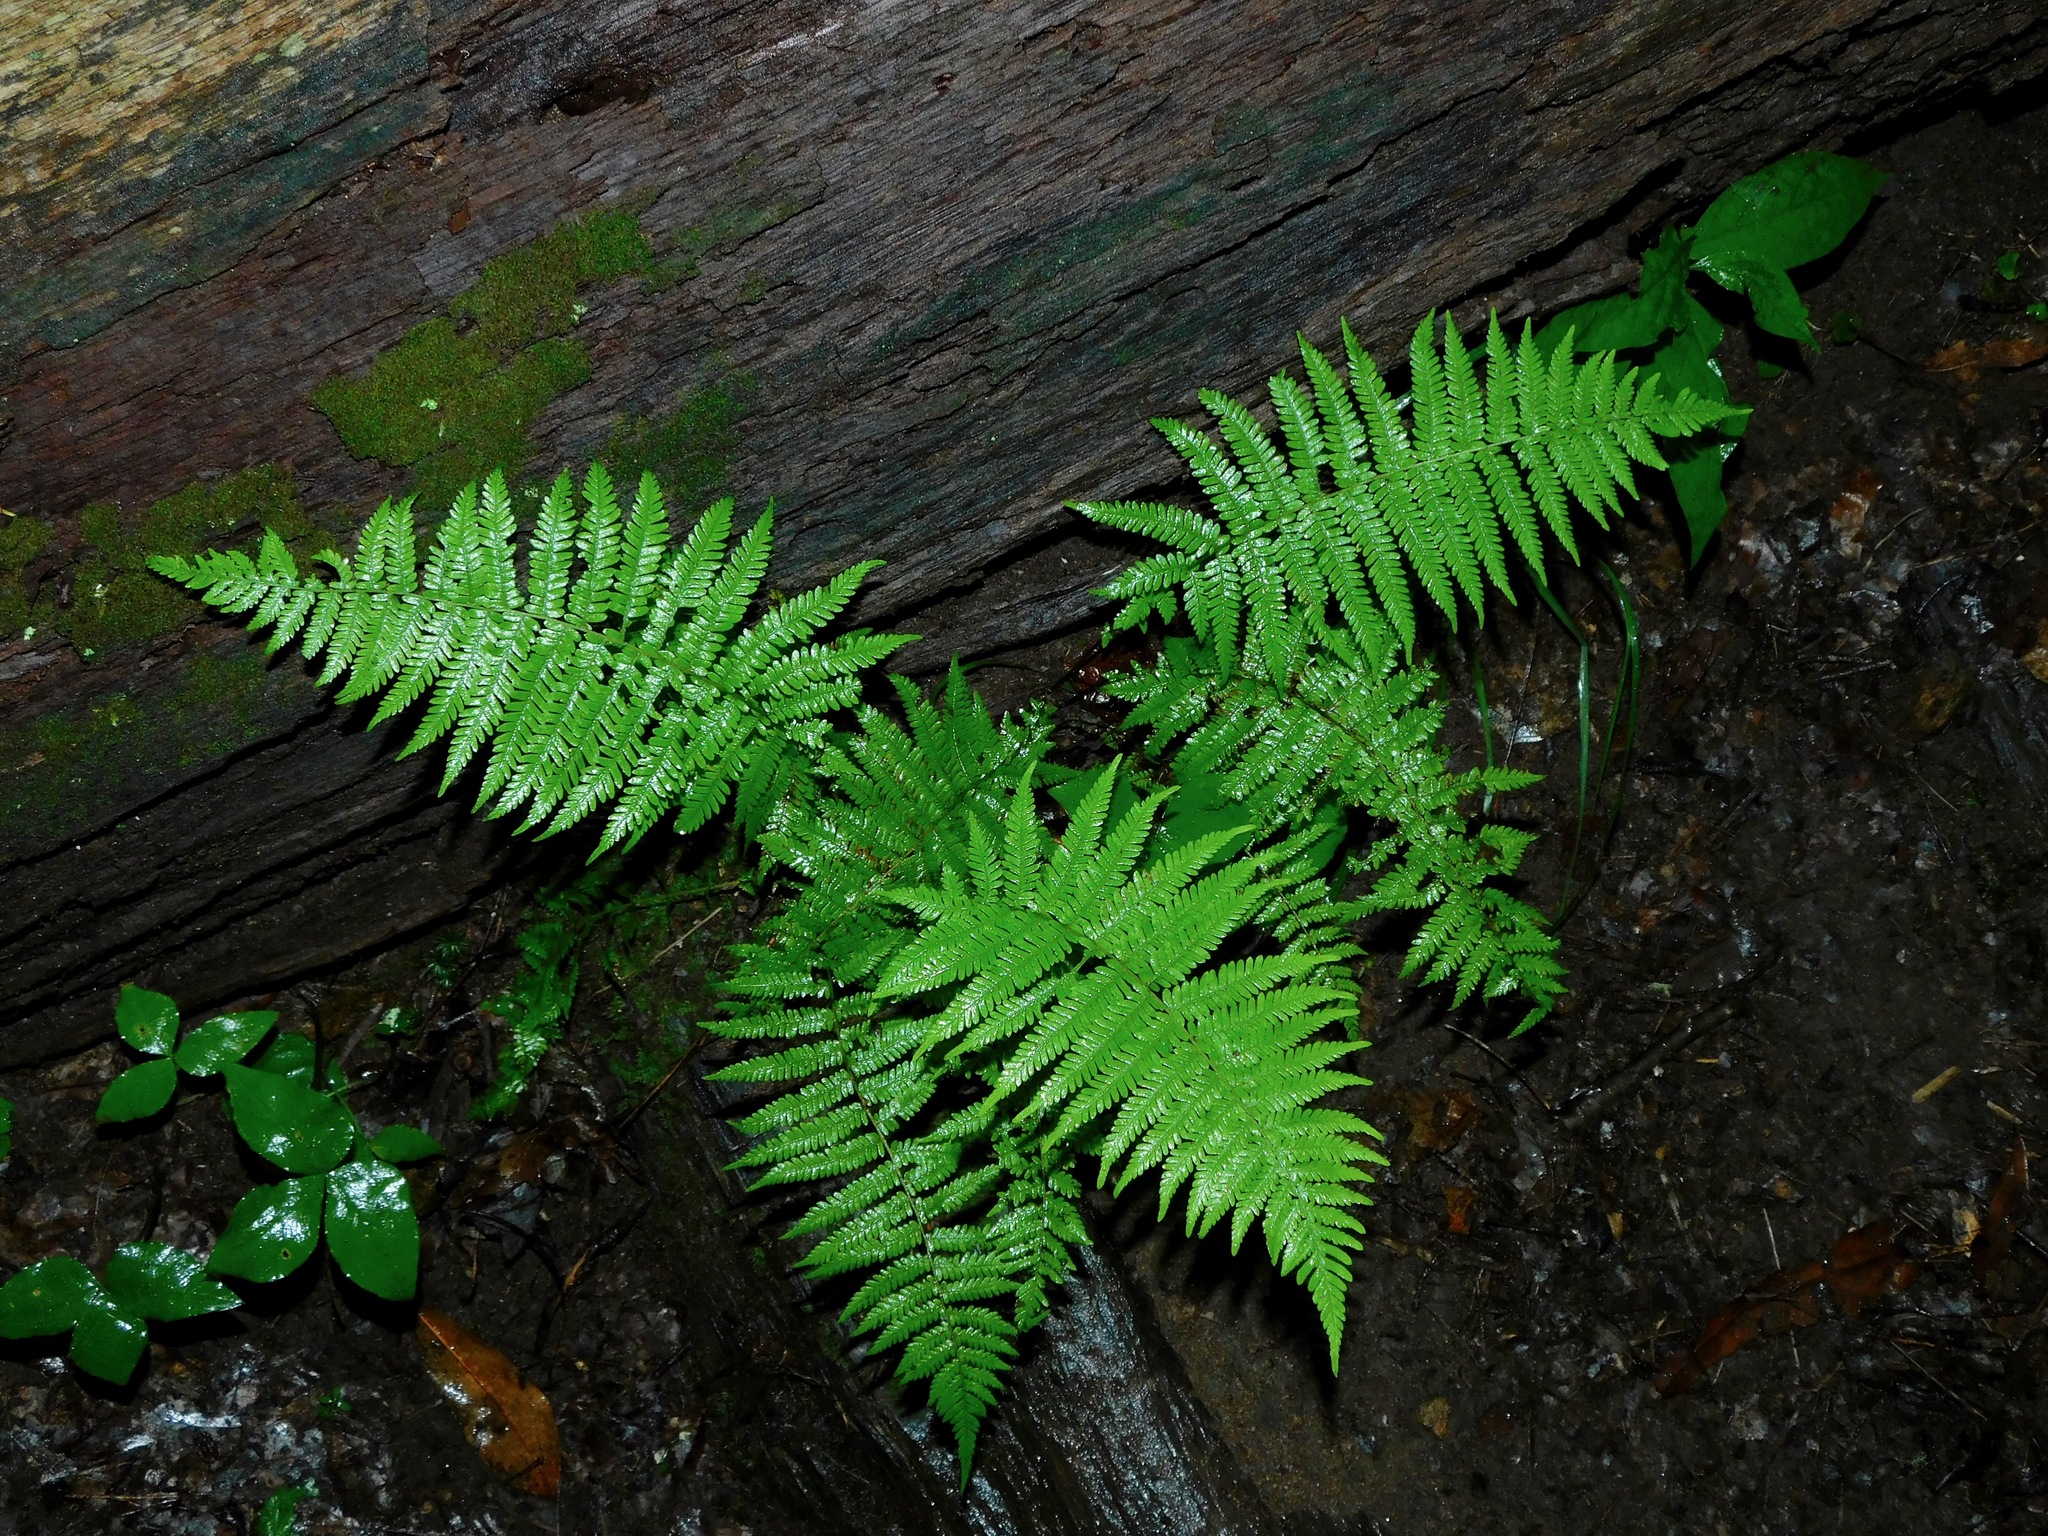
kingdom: Plantae
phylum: Tracheophyta
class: Polypodiopsida
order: Polypodiales
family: Thelypteridaceae
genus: Amauropelta
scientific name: Amauropelta noveboracensis
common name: New york fern
